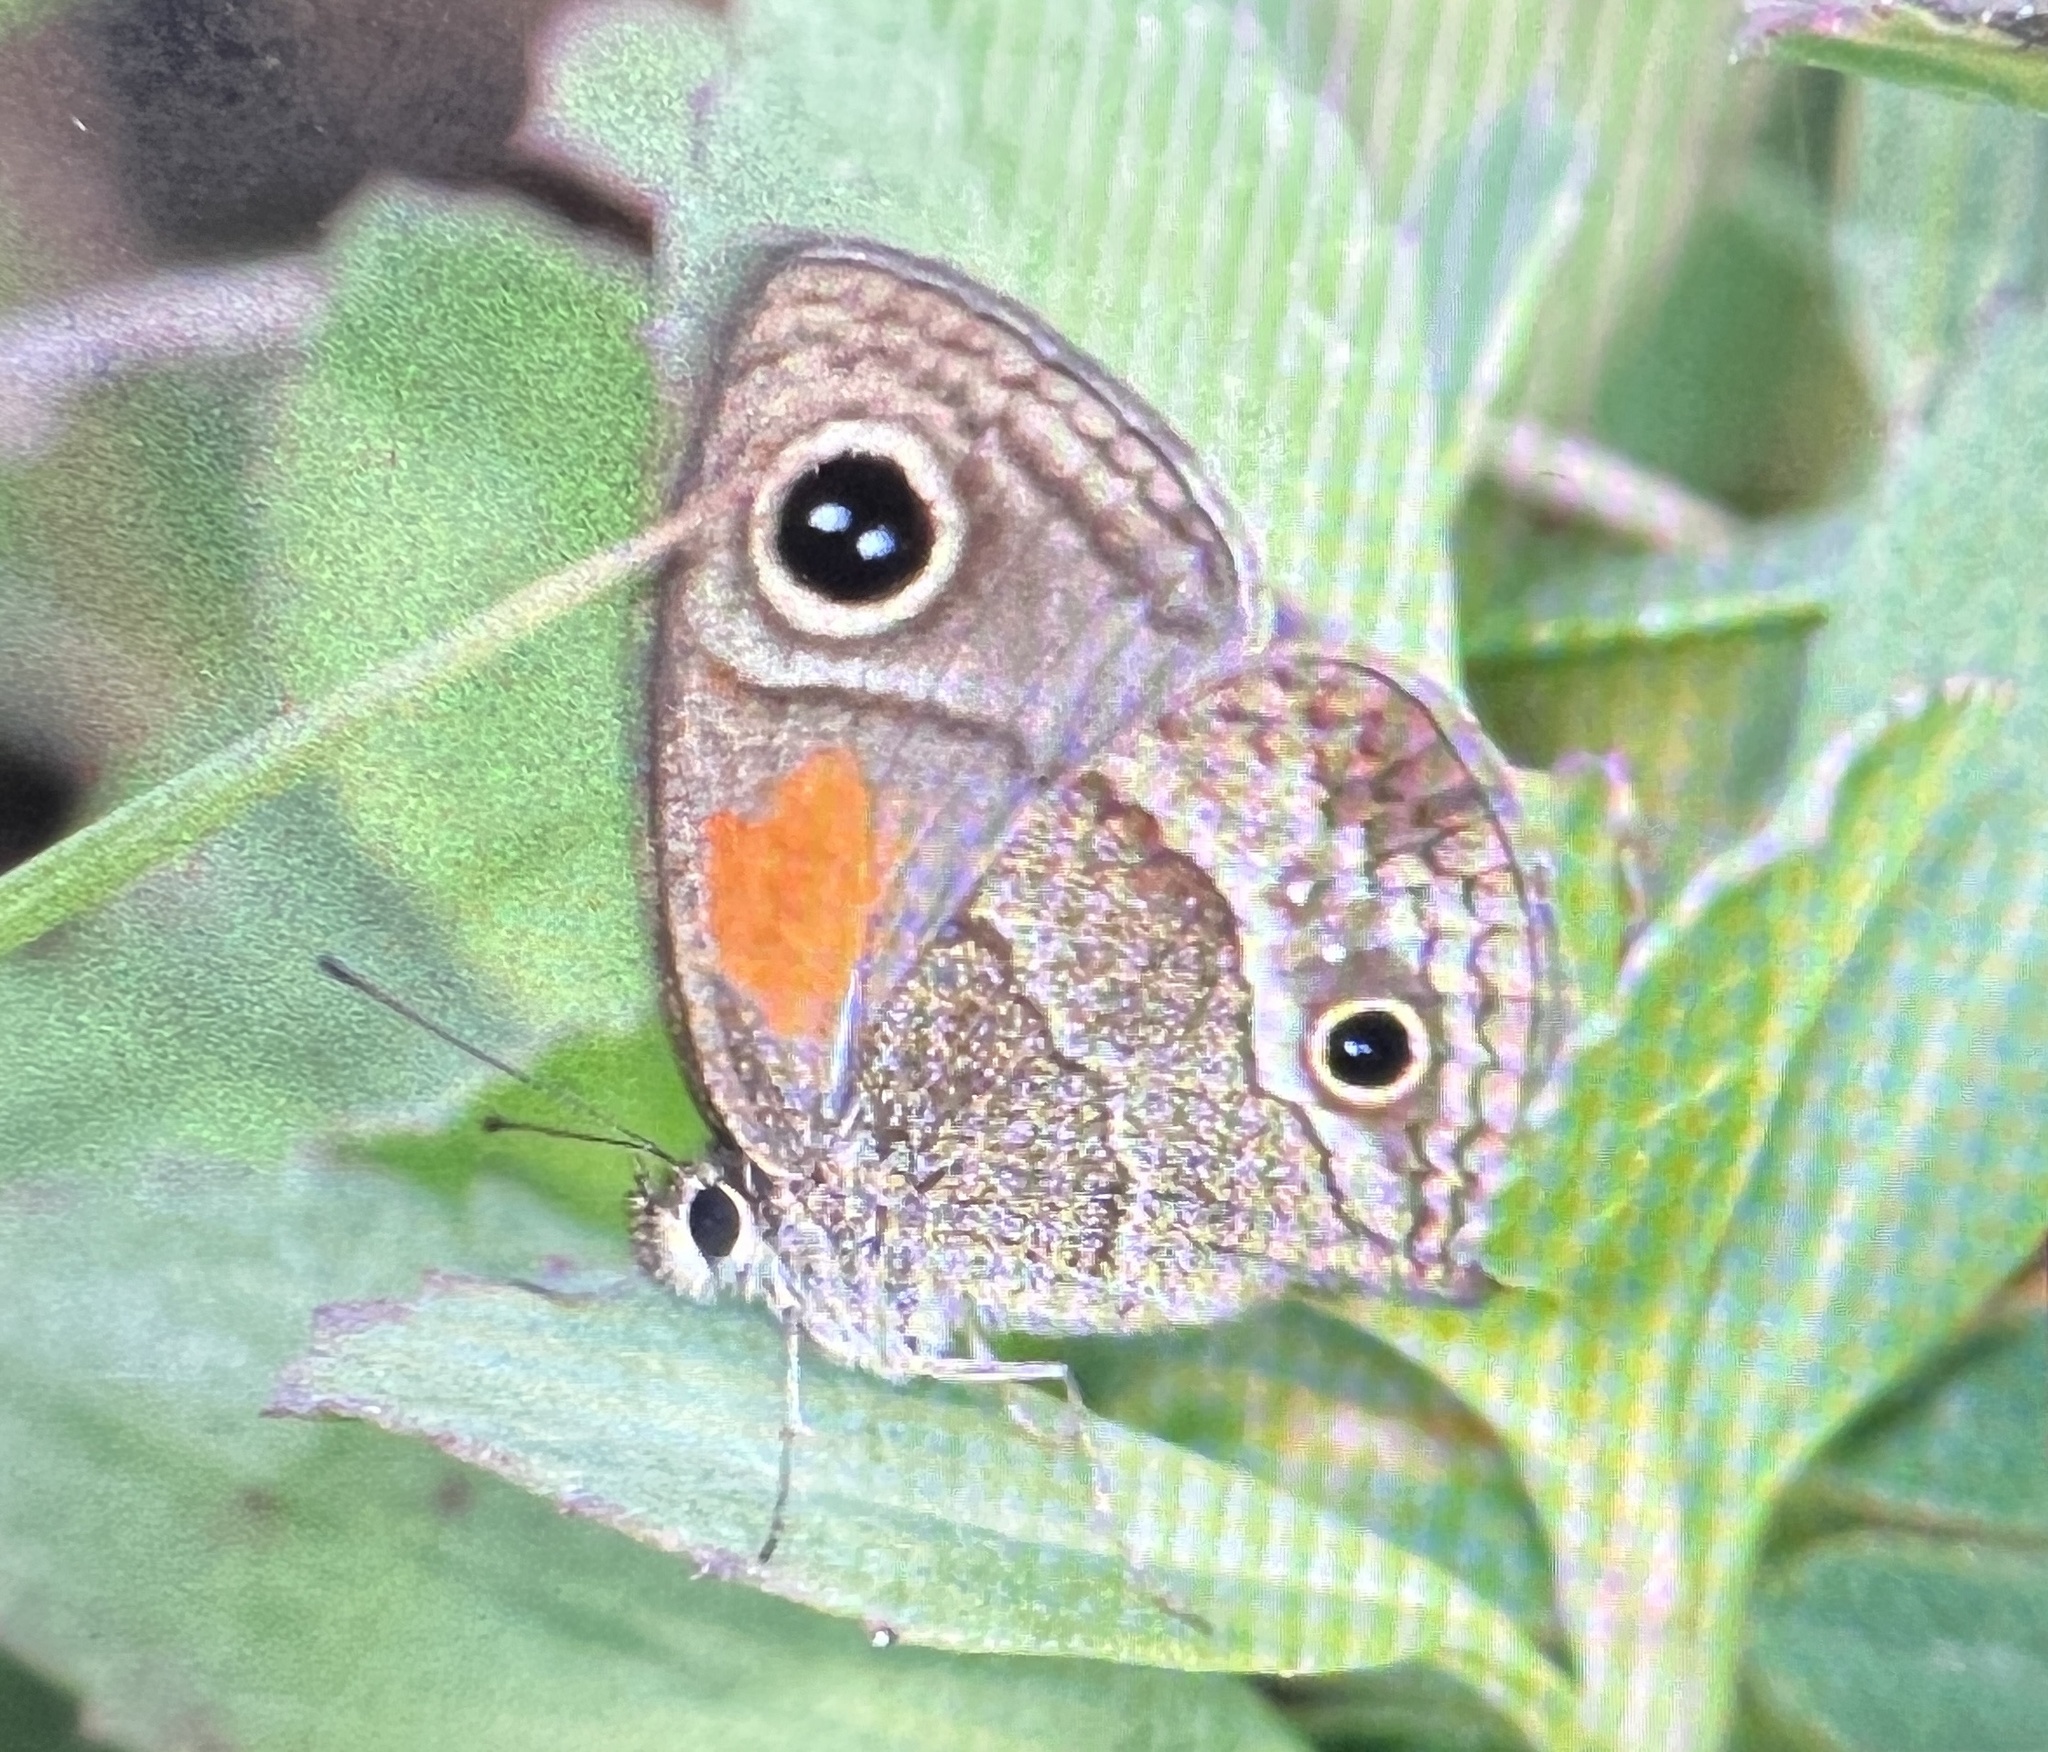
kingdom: Animalia
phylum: Arthropoda
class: Insecta
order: Lepidoptera
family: Nymphalidae
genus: Calisto
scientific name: Calisto obscura
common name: Obscure calisto
